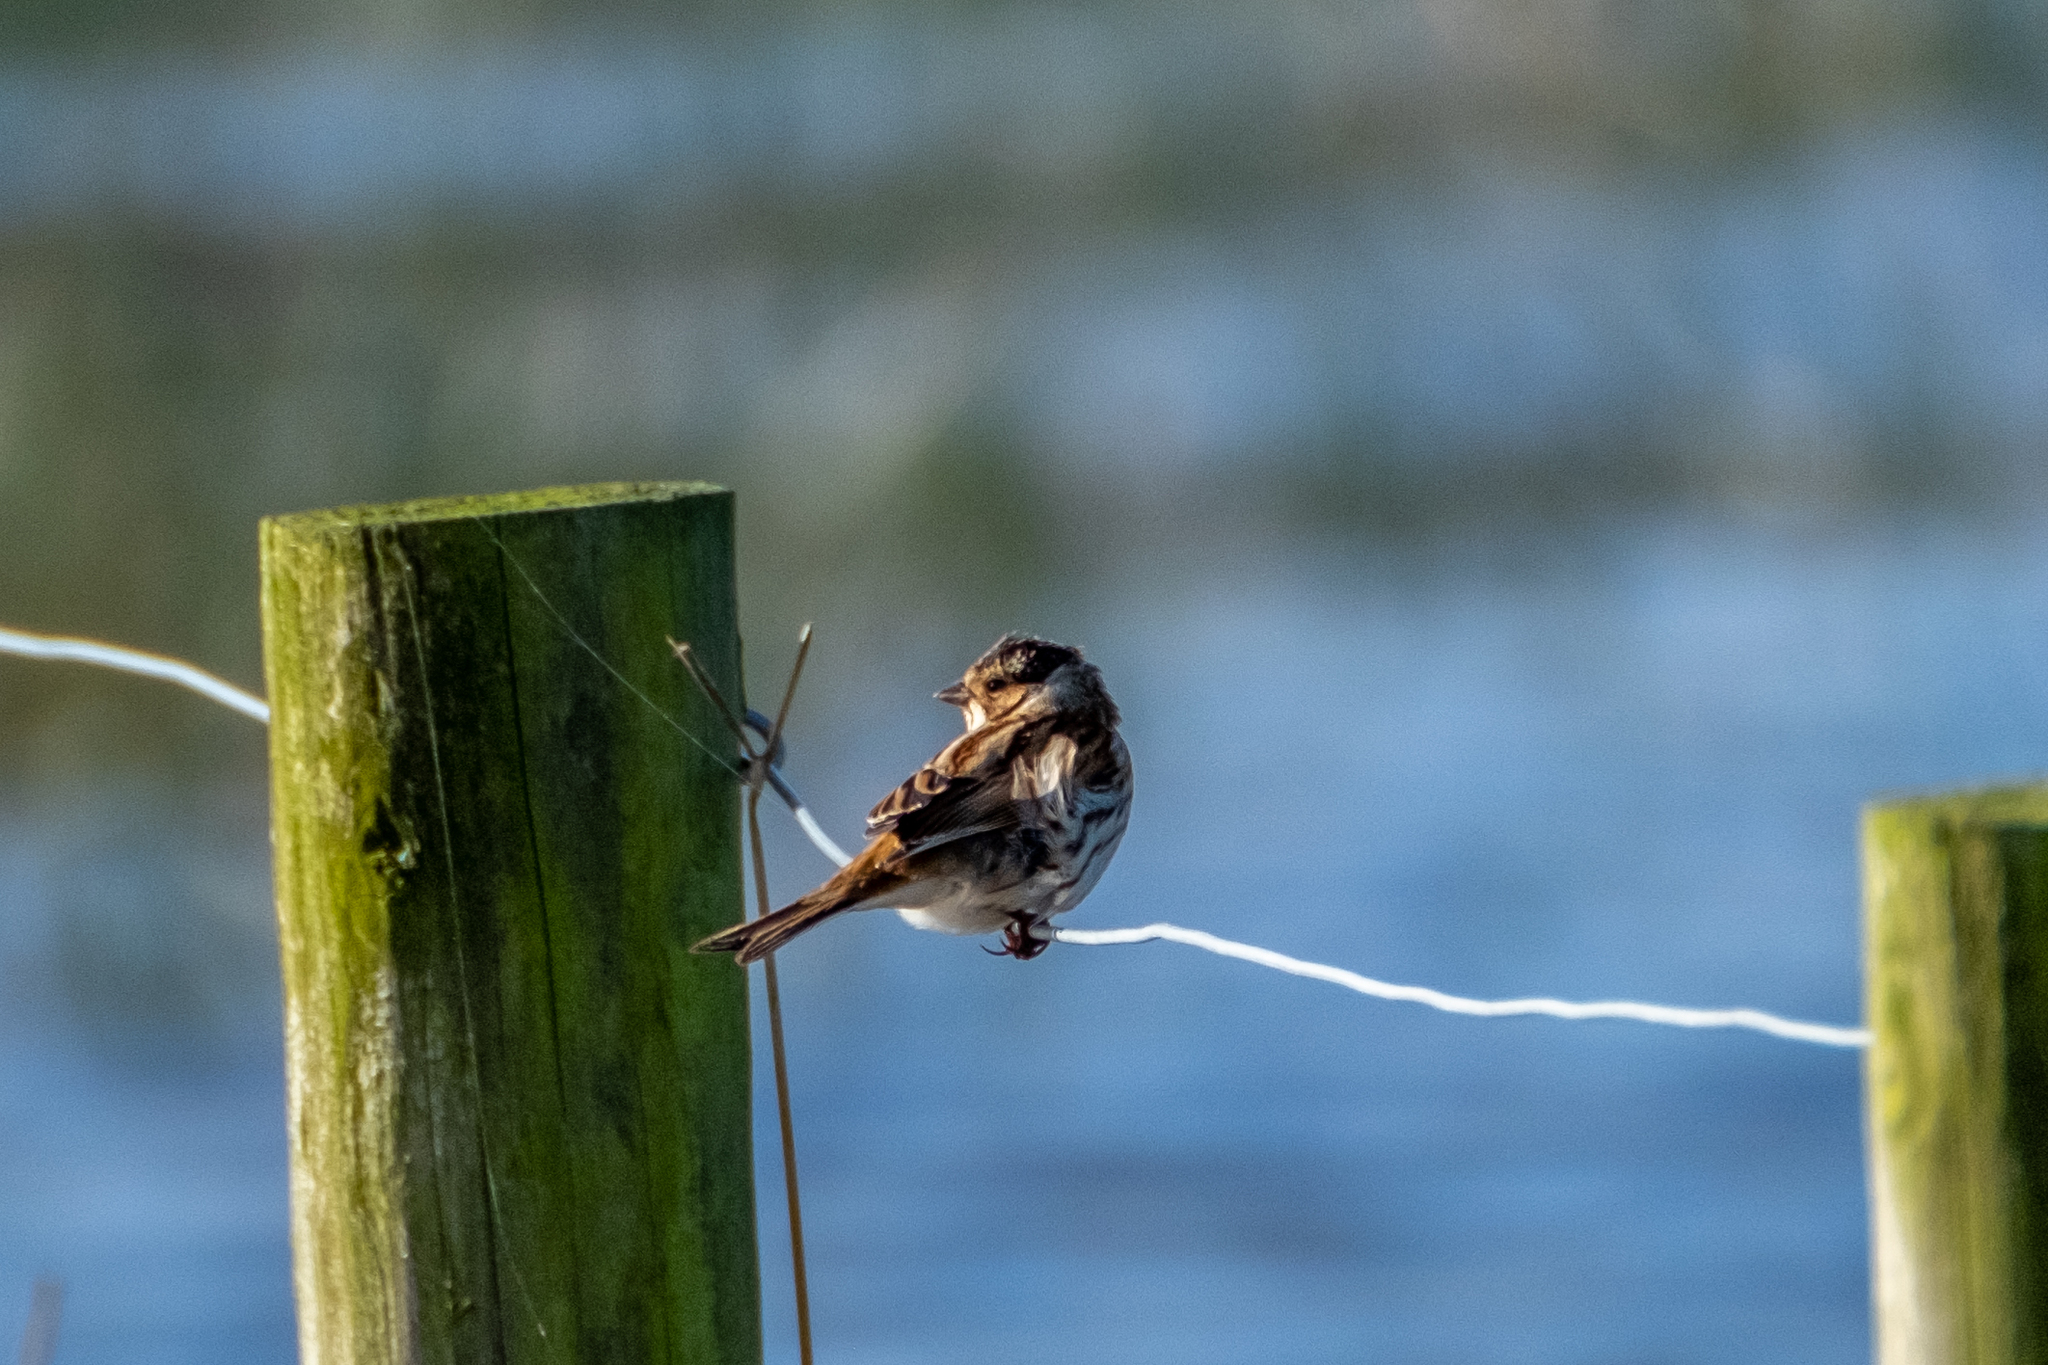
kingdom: Animalia
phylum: Chordata
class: Aves
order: Passeriformes
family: Emberizidae
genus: Emberiza
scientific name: Emberiza schoeniclus
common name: Reed bunting
